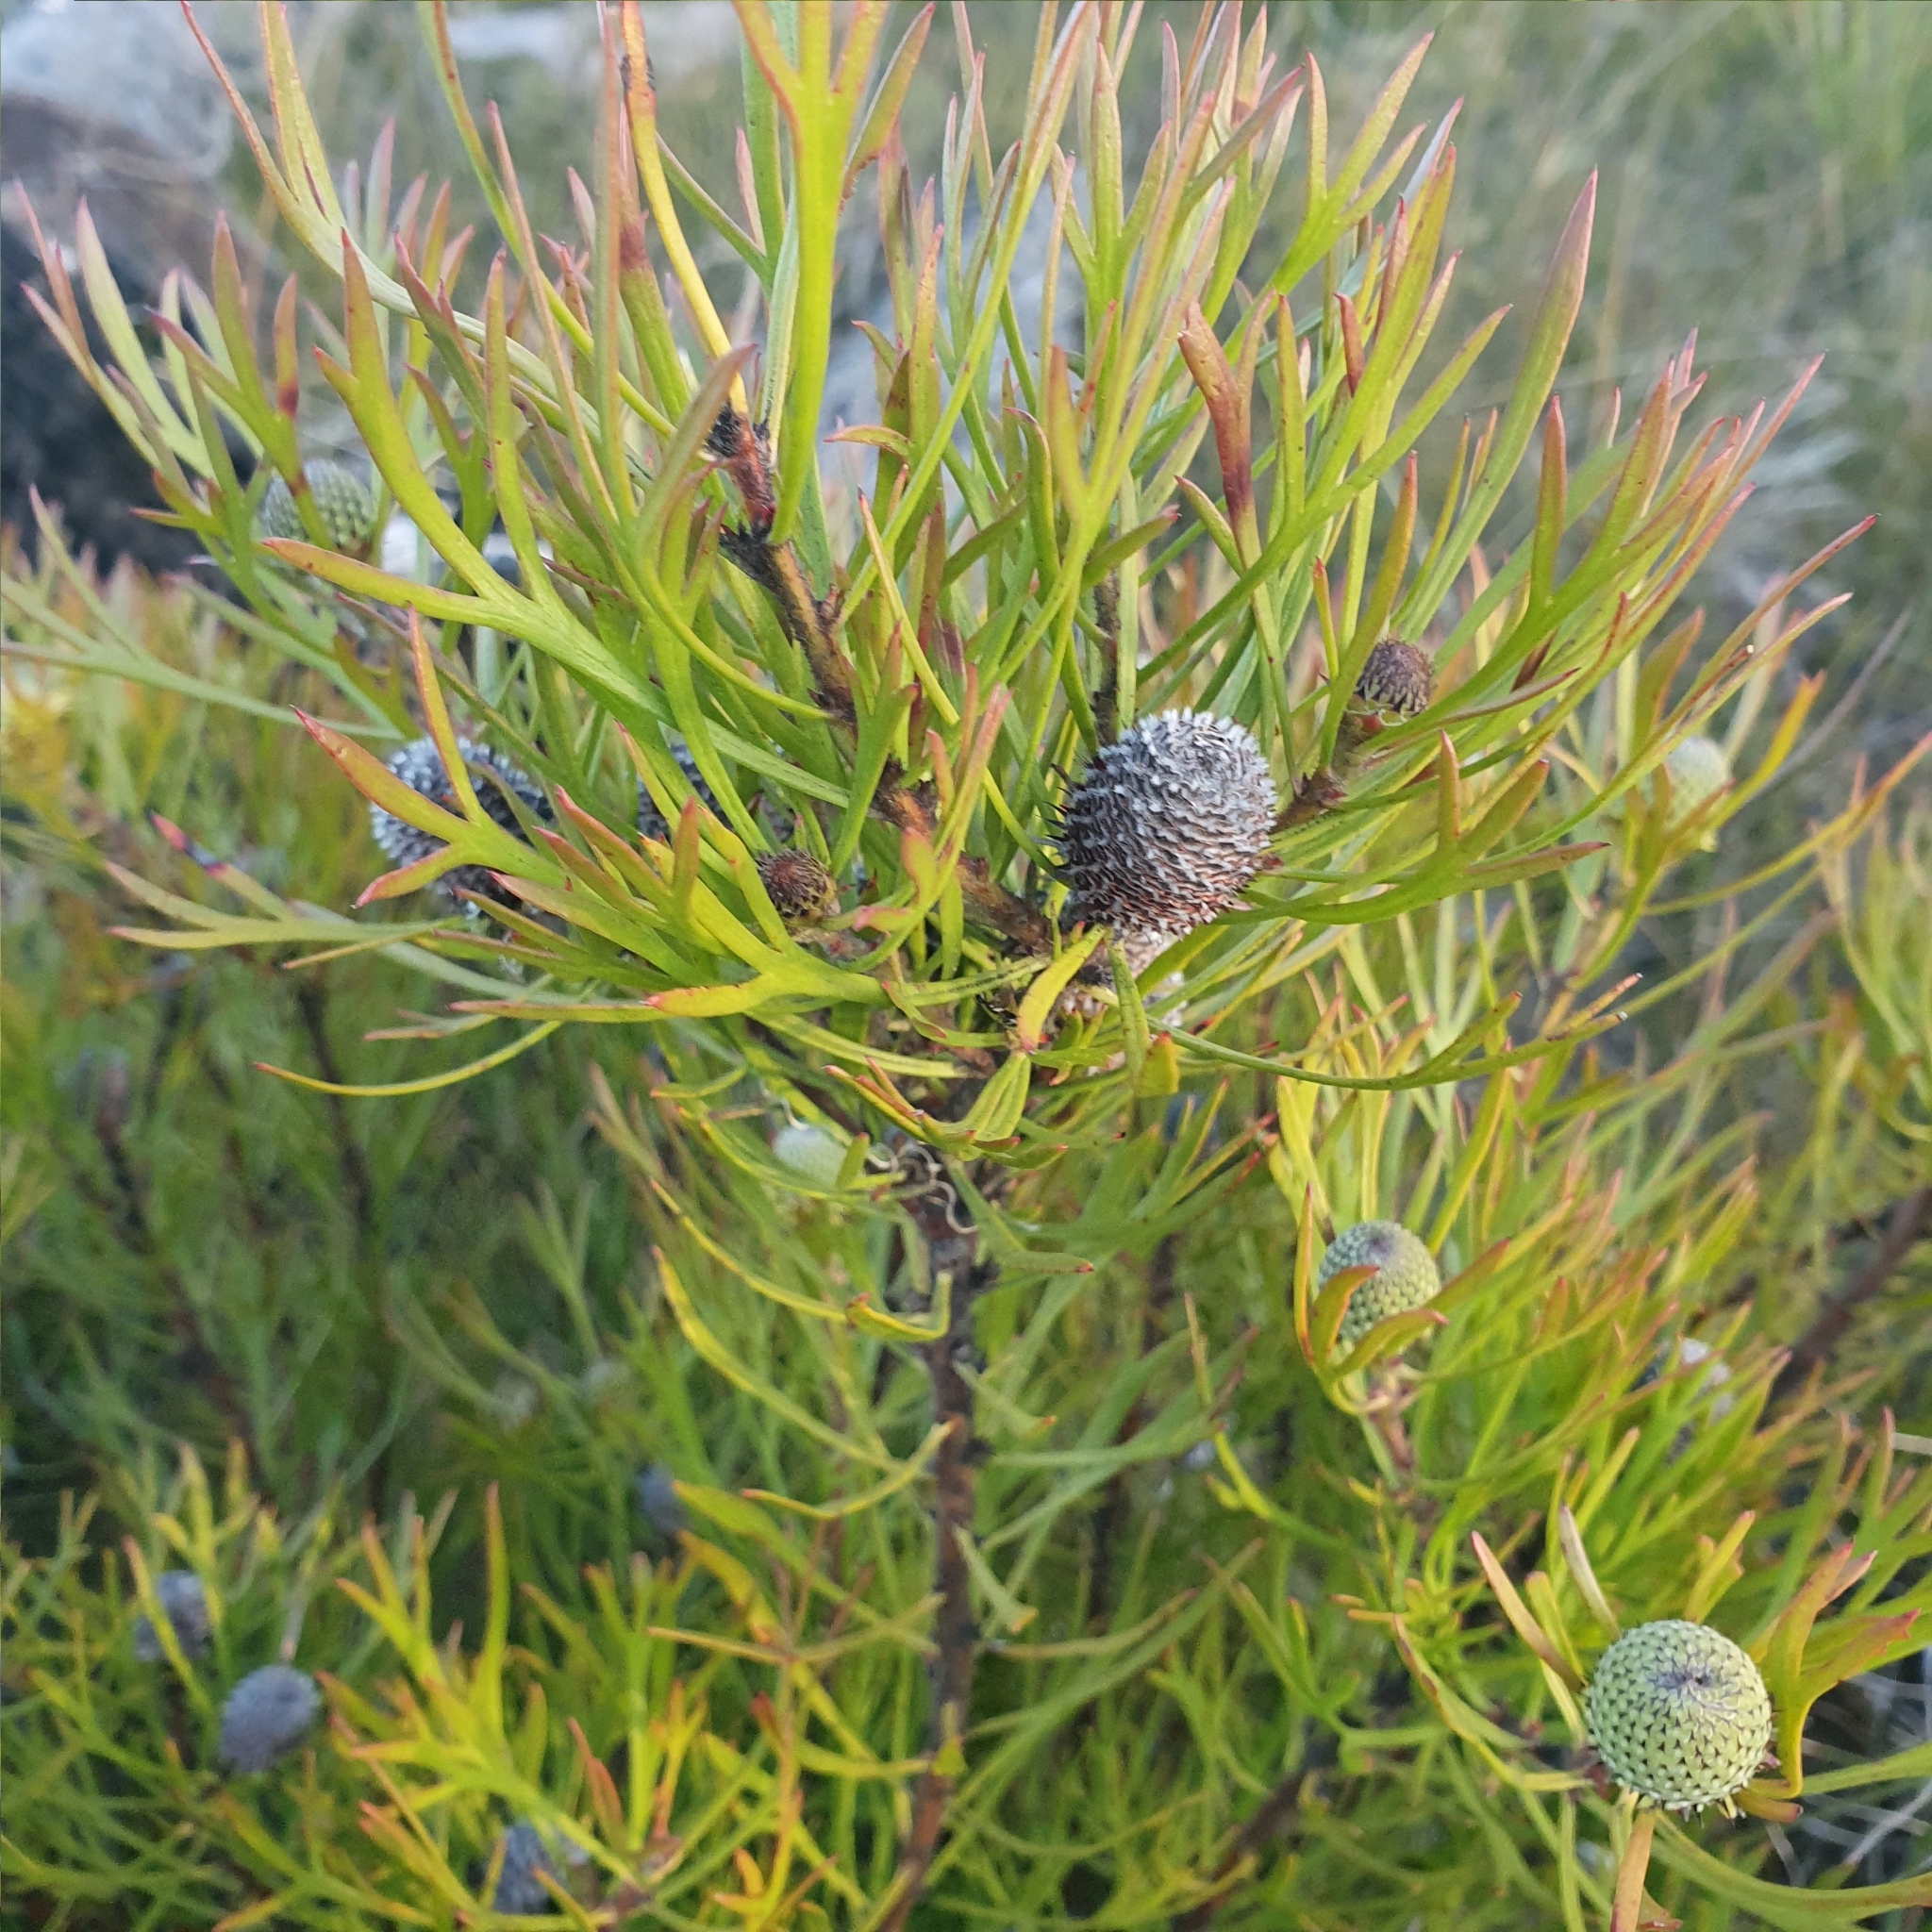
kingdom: Plantae
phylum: Tracheophyta
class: Magnoliopsida
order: Proteales
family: Proteaceae
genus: Isopogon
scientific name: Isopogon anemonifolius
